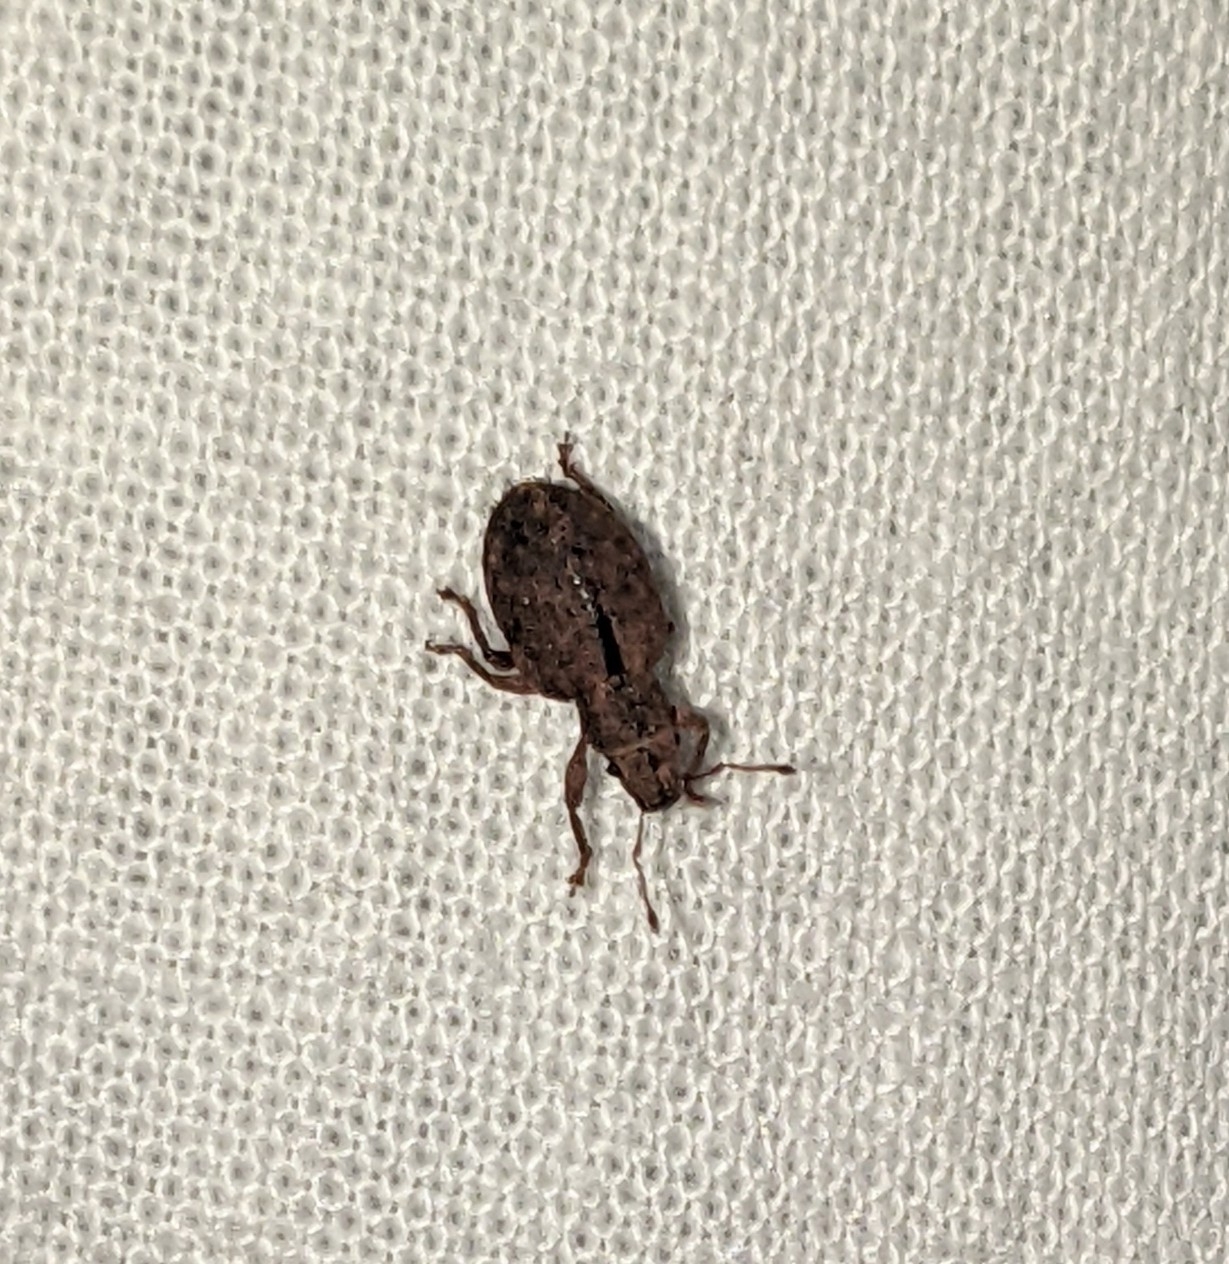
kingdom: Animalia
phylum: Arthropoda
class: Insecta
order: Coleoptera
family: Curculionidae
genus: Strophosoma
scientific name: Strophosoma melanogrammum
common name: Weevil
